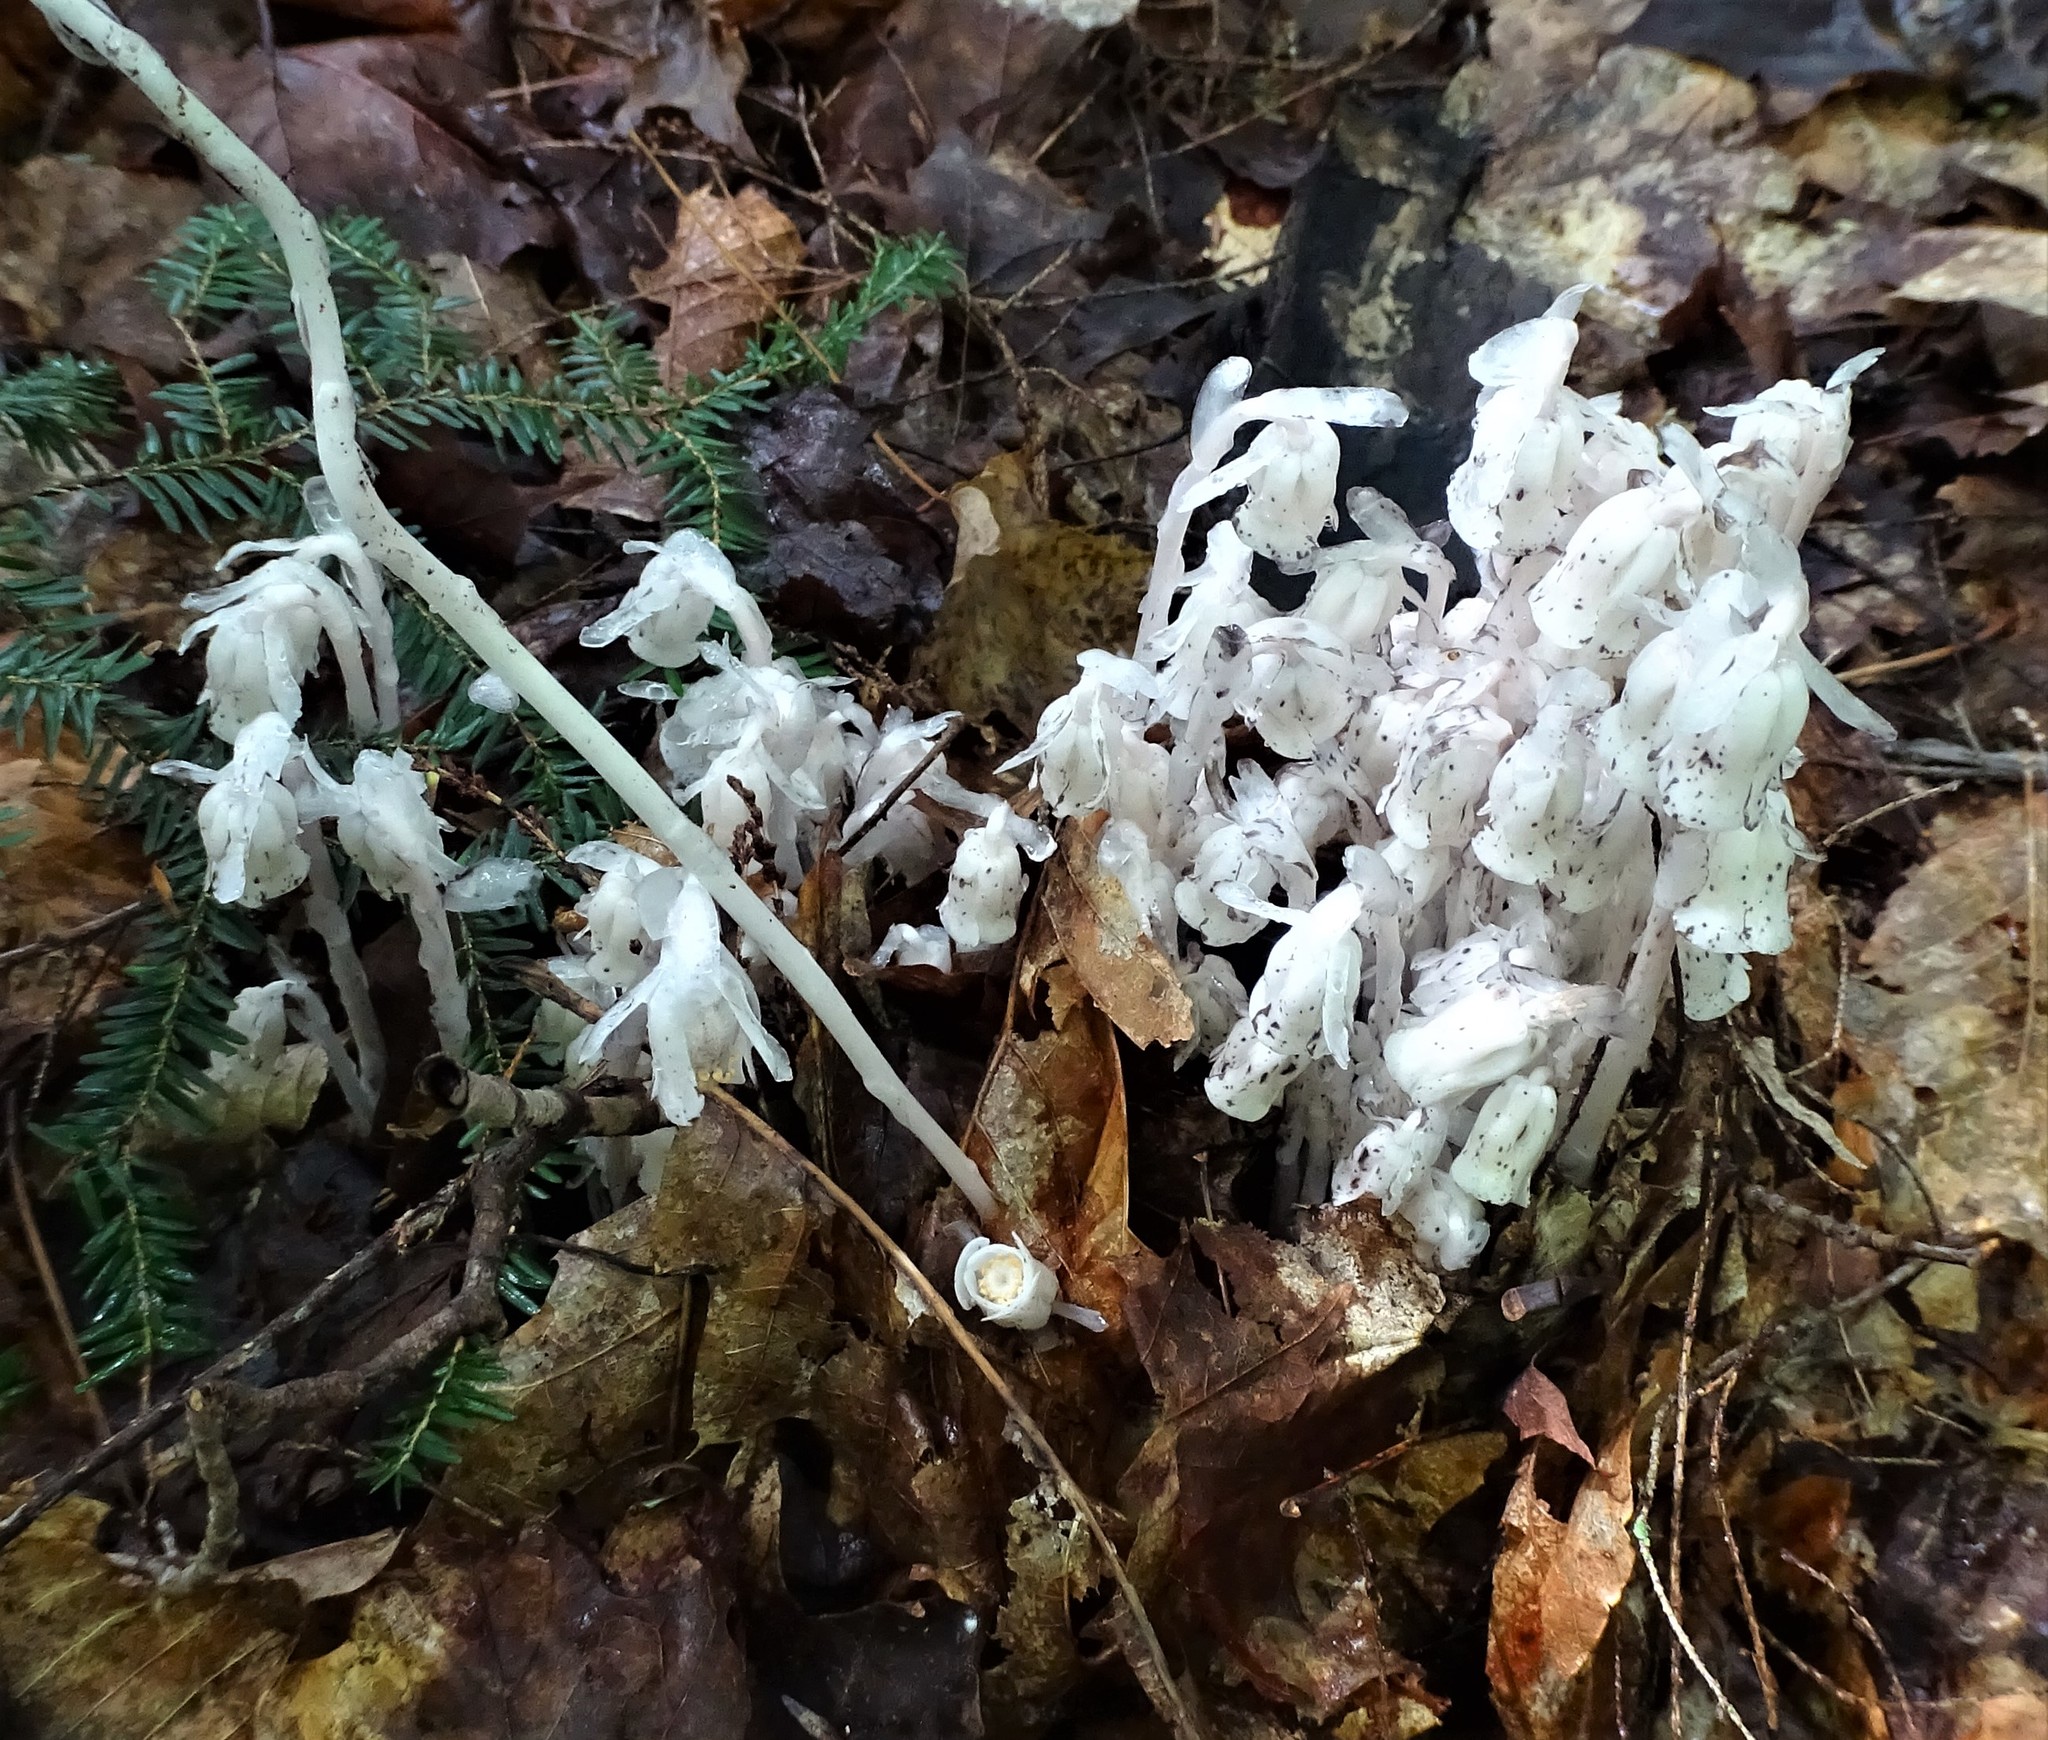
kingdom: Plantae
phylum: Tracheophyta
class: Magnoliopsida
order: Ericales
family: Ericaceae
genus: Monotropa
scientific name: Monotropa uniflora
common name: Convulsion root
